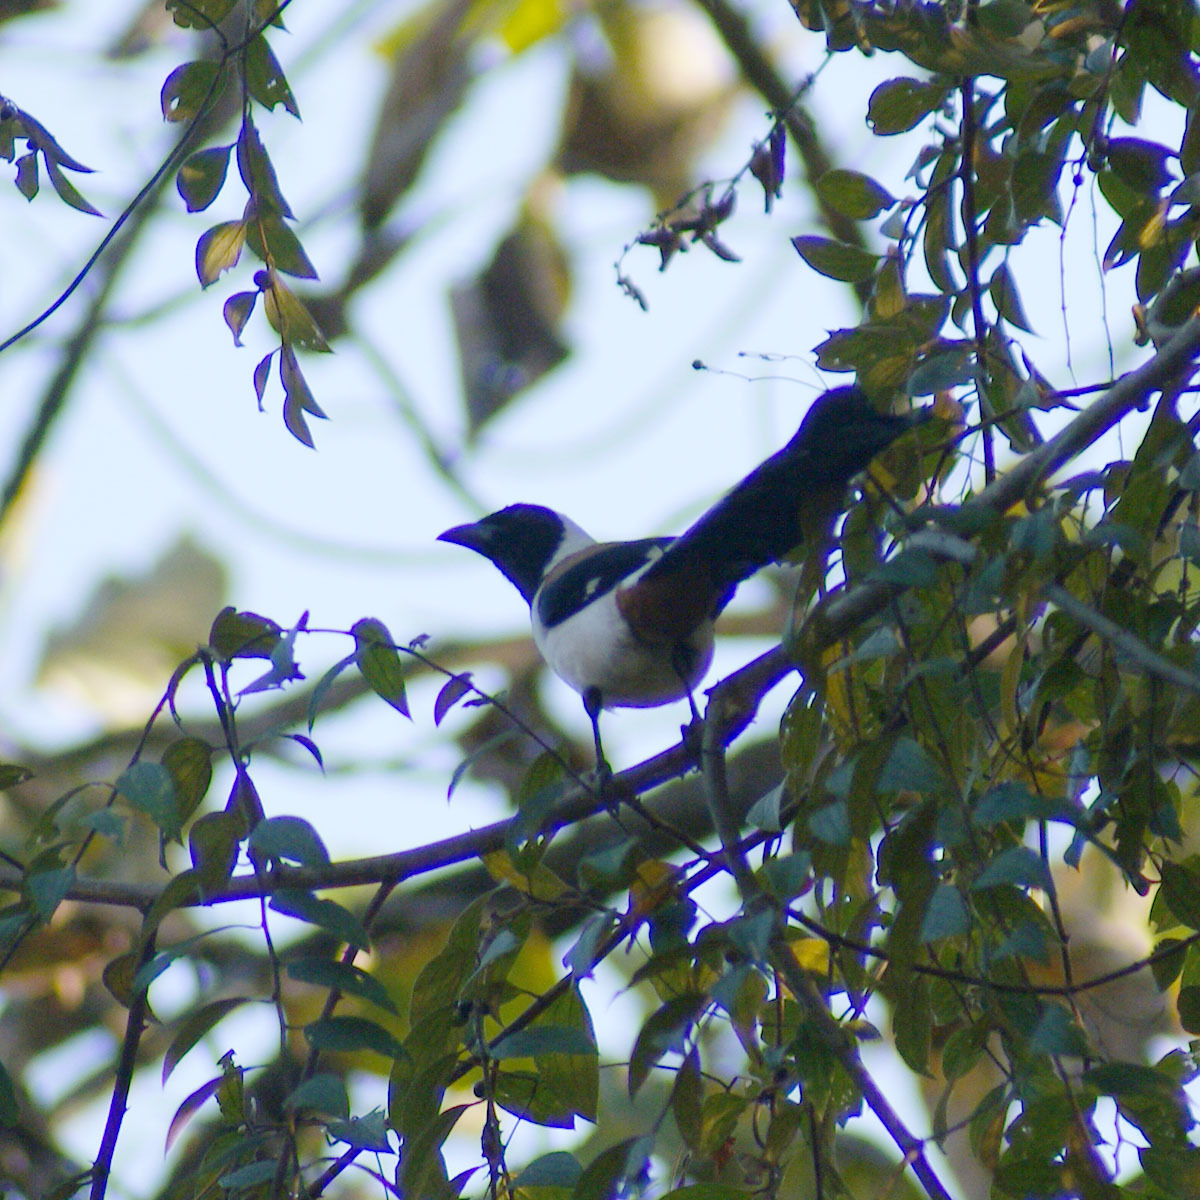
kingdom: Animalia
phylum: Chordata
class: Aves
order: Passeriformes
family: Corvidae
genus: Dendrocitta
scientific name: Dendrocitta leucogastra
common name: White-bellied treepie
